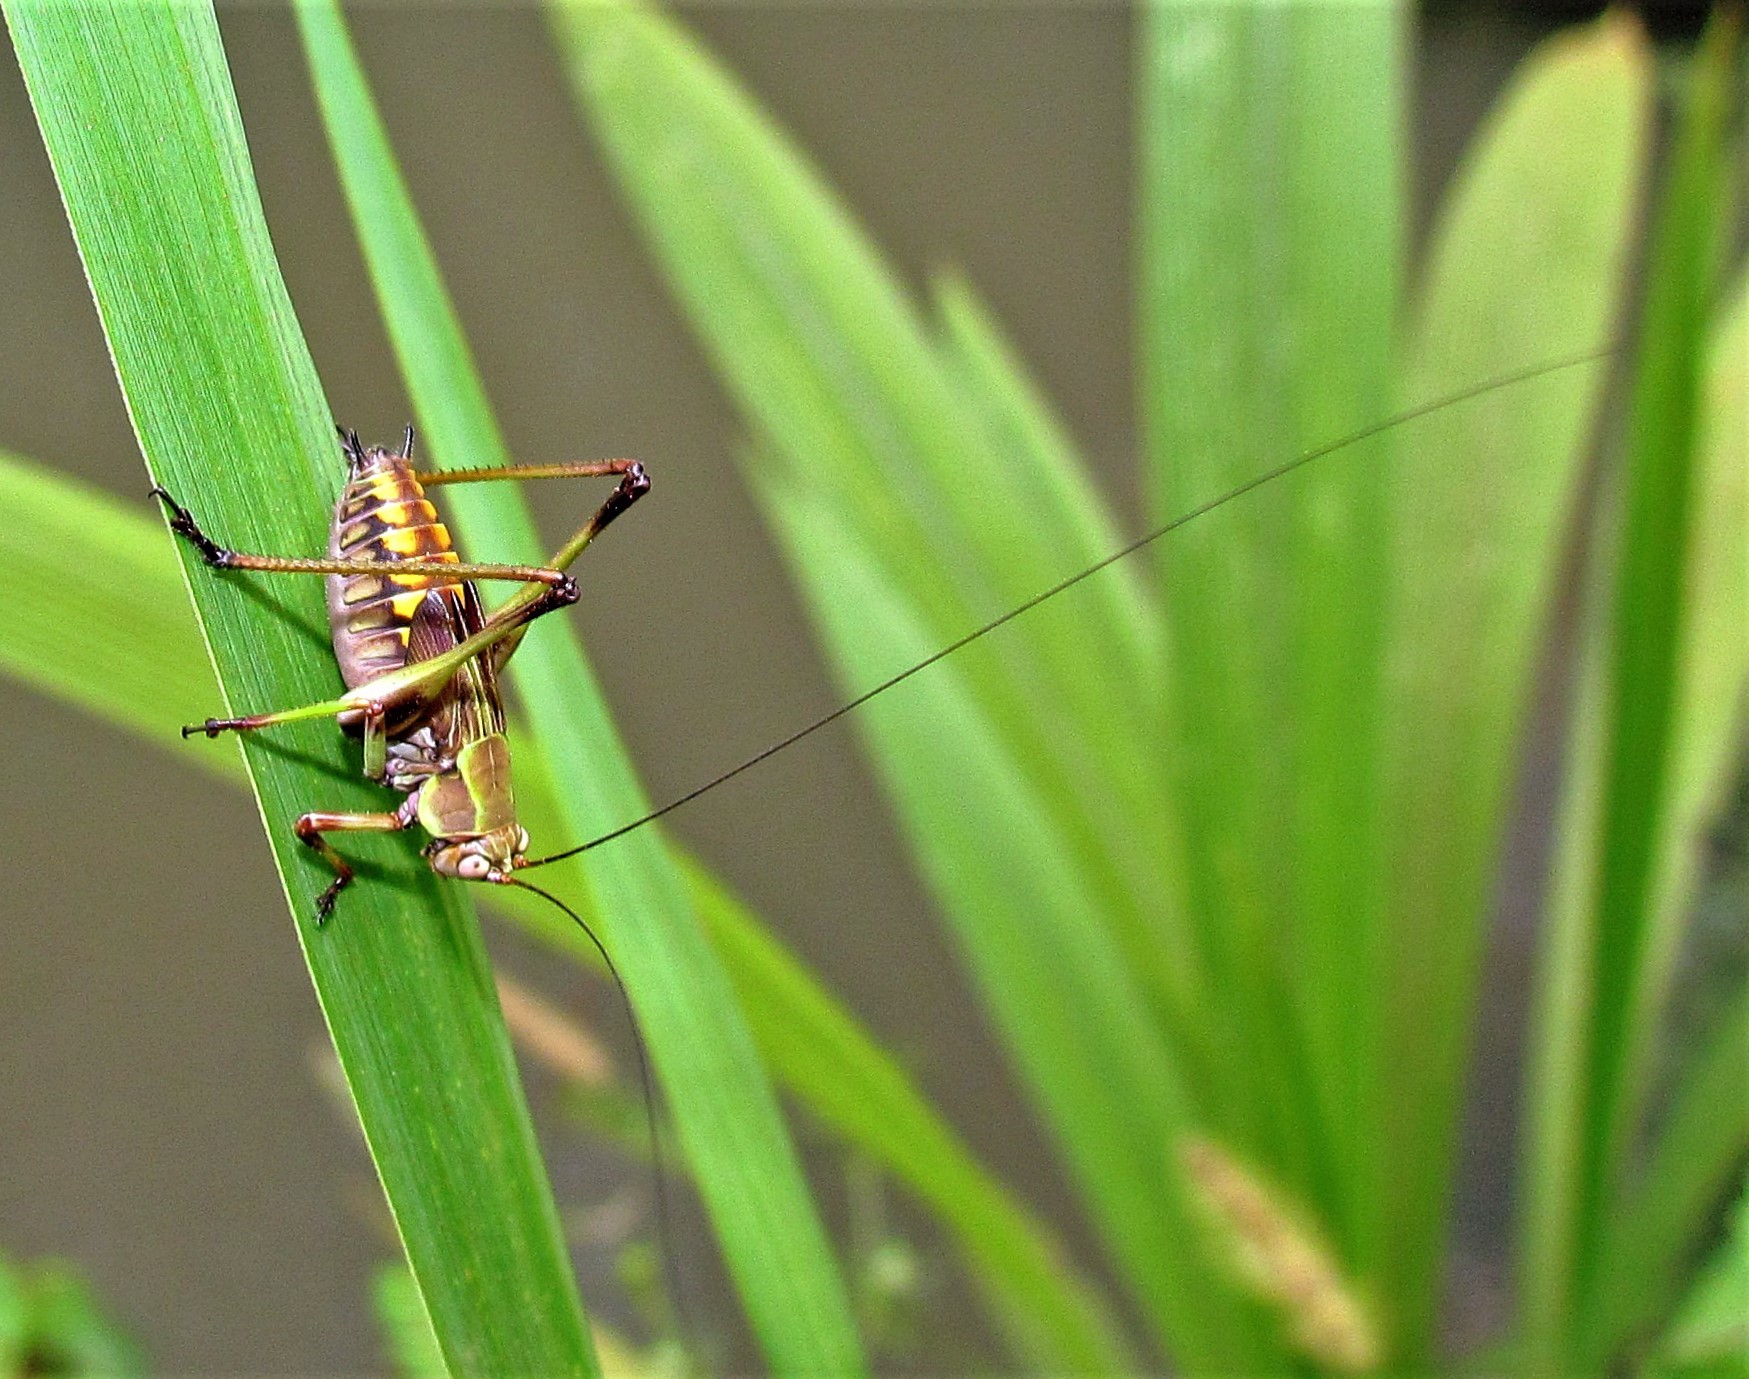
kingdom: Animalia
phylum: Arthropoda
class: Insecta
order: Orthoptera
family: Tettigoniidae
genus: Enthephippion
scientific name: Enthephippion olivaceum
